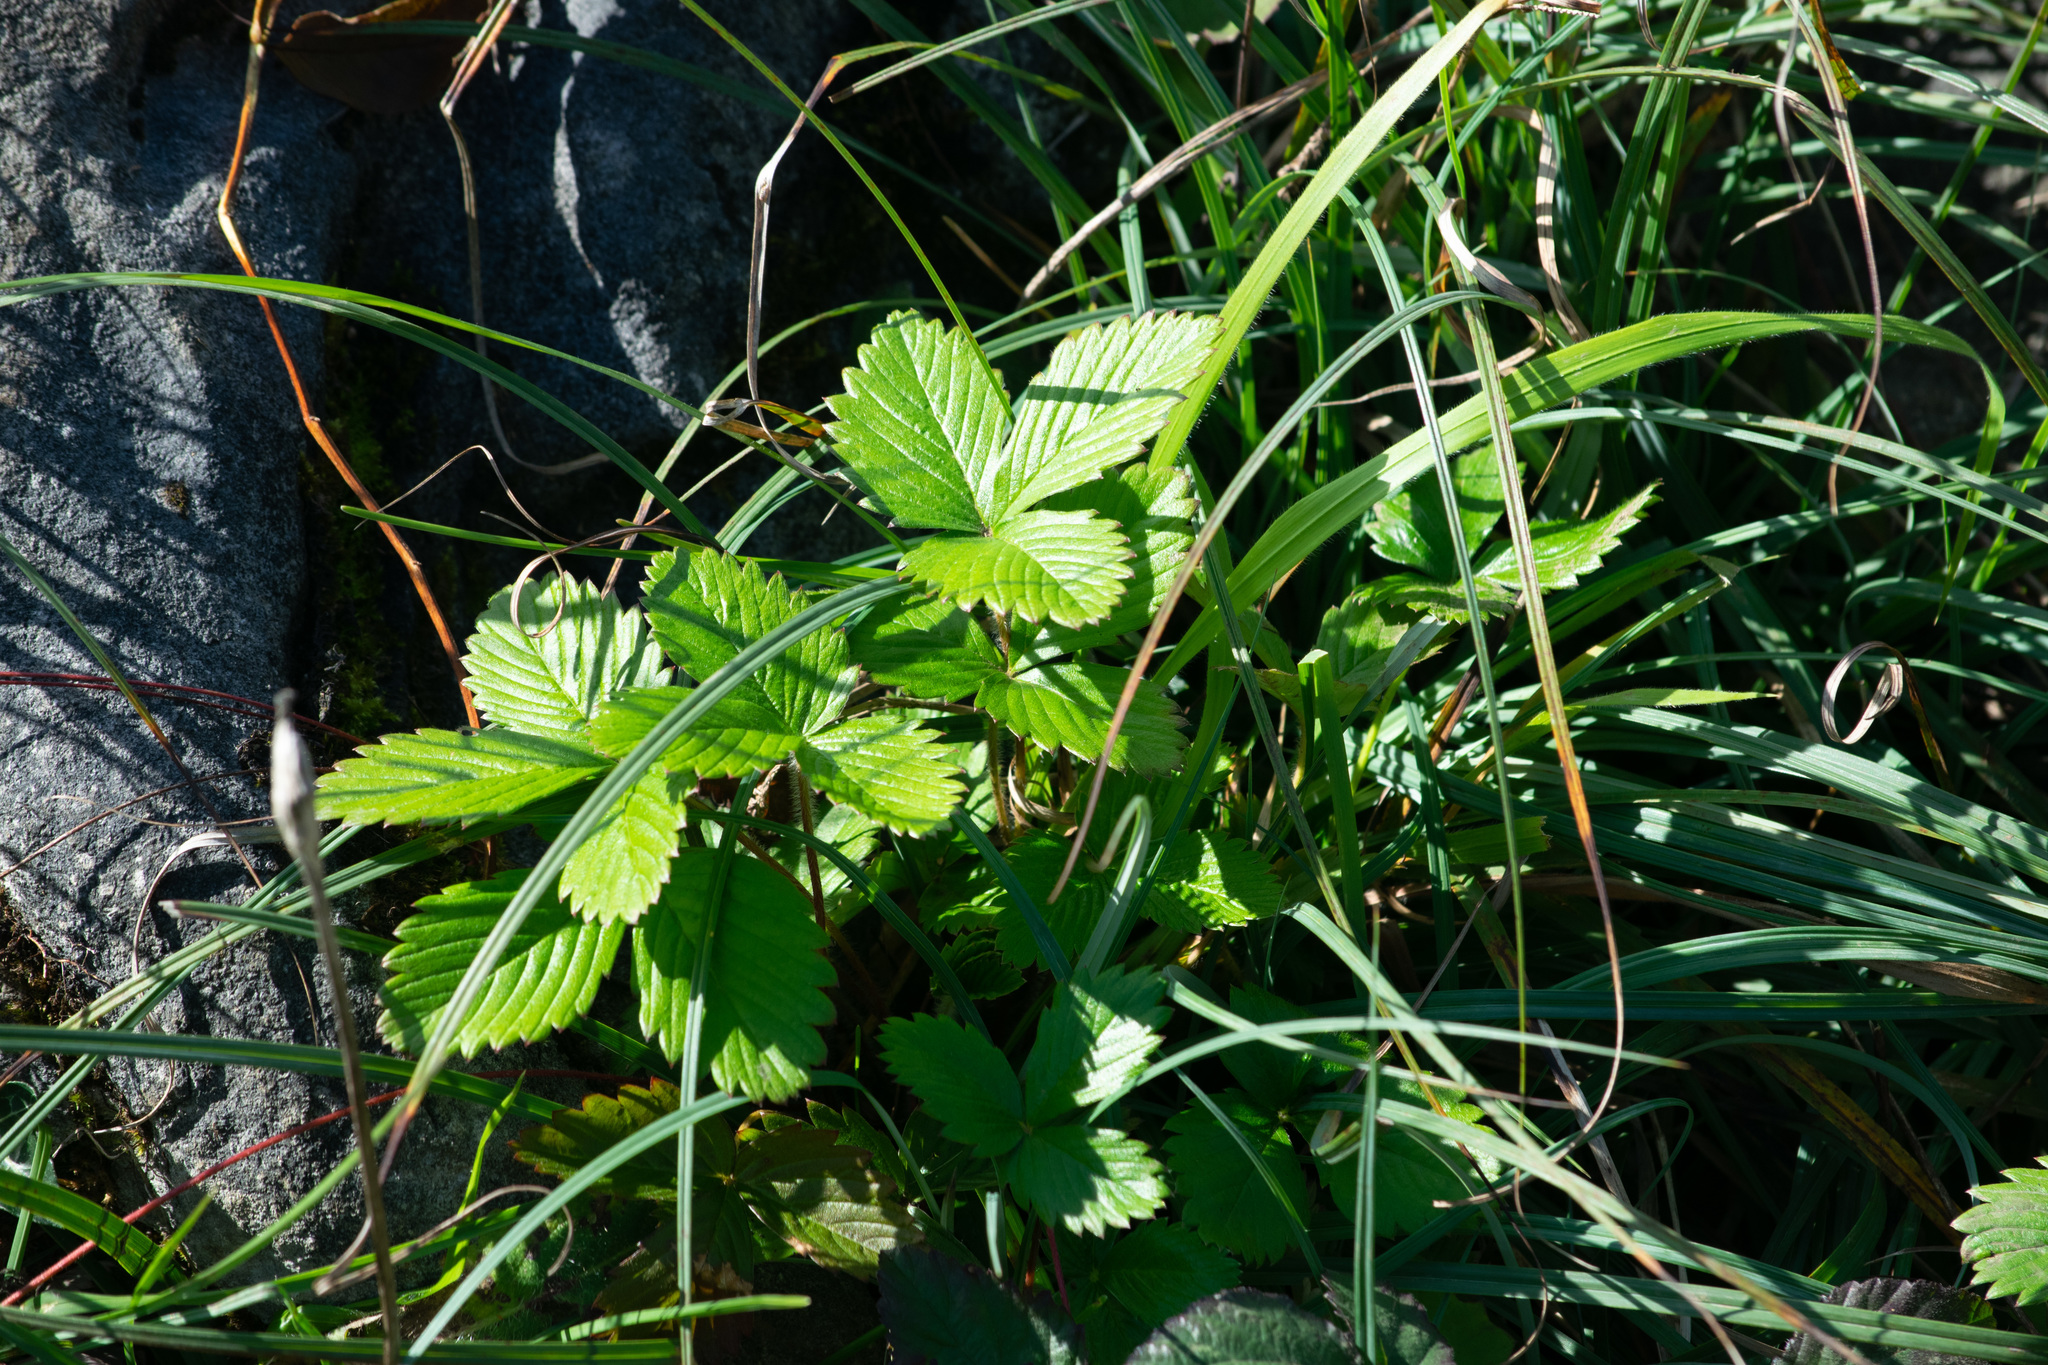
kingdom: Plantae
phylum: Tracheophyta
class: Magnoliopsida
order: Rosales
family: Rosaceae
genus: Fragaria
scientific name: Fragaria vesca
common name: Wild strawberry
